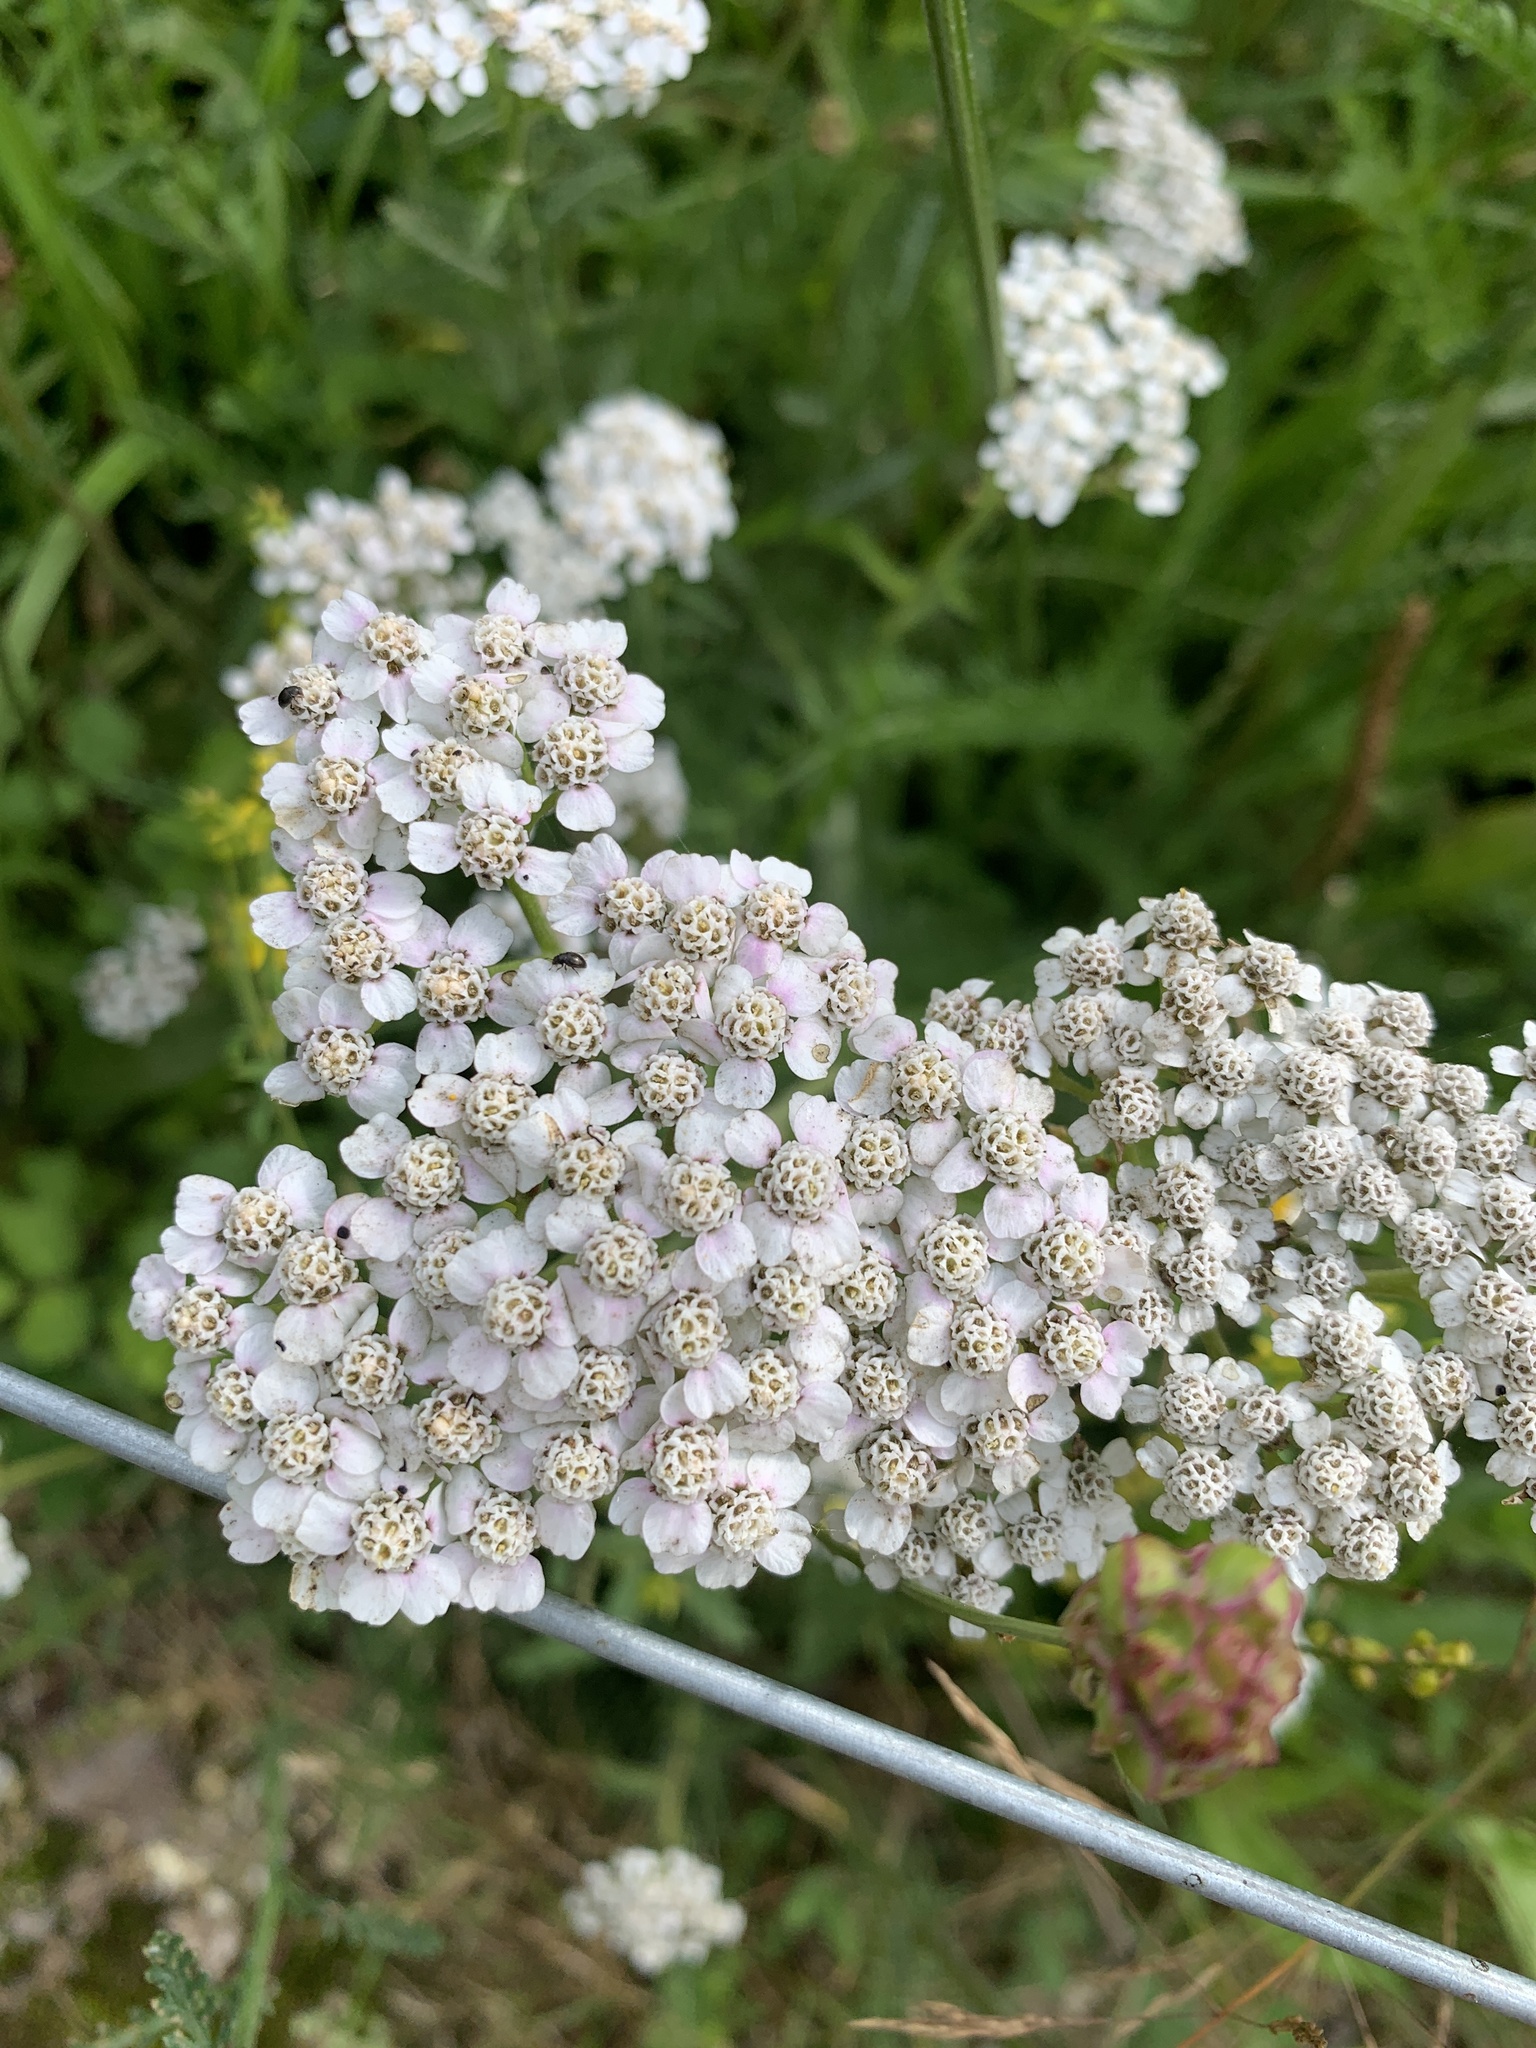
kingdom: Plantae
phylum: Tracheophyta
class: Magnoliopsida
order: Asterales
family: Asteraceae
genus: Achillea
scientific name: Achillea millefolium
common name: Yarrow
